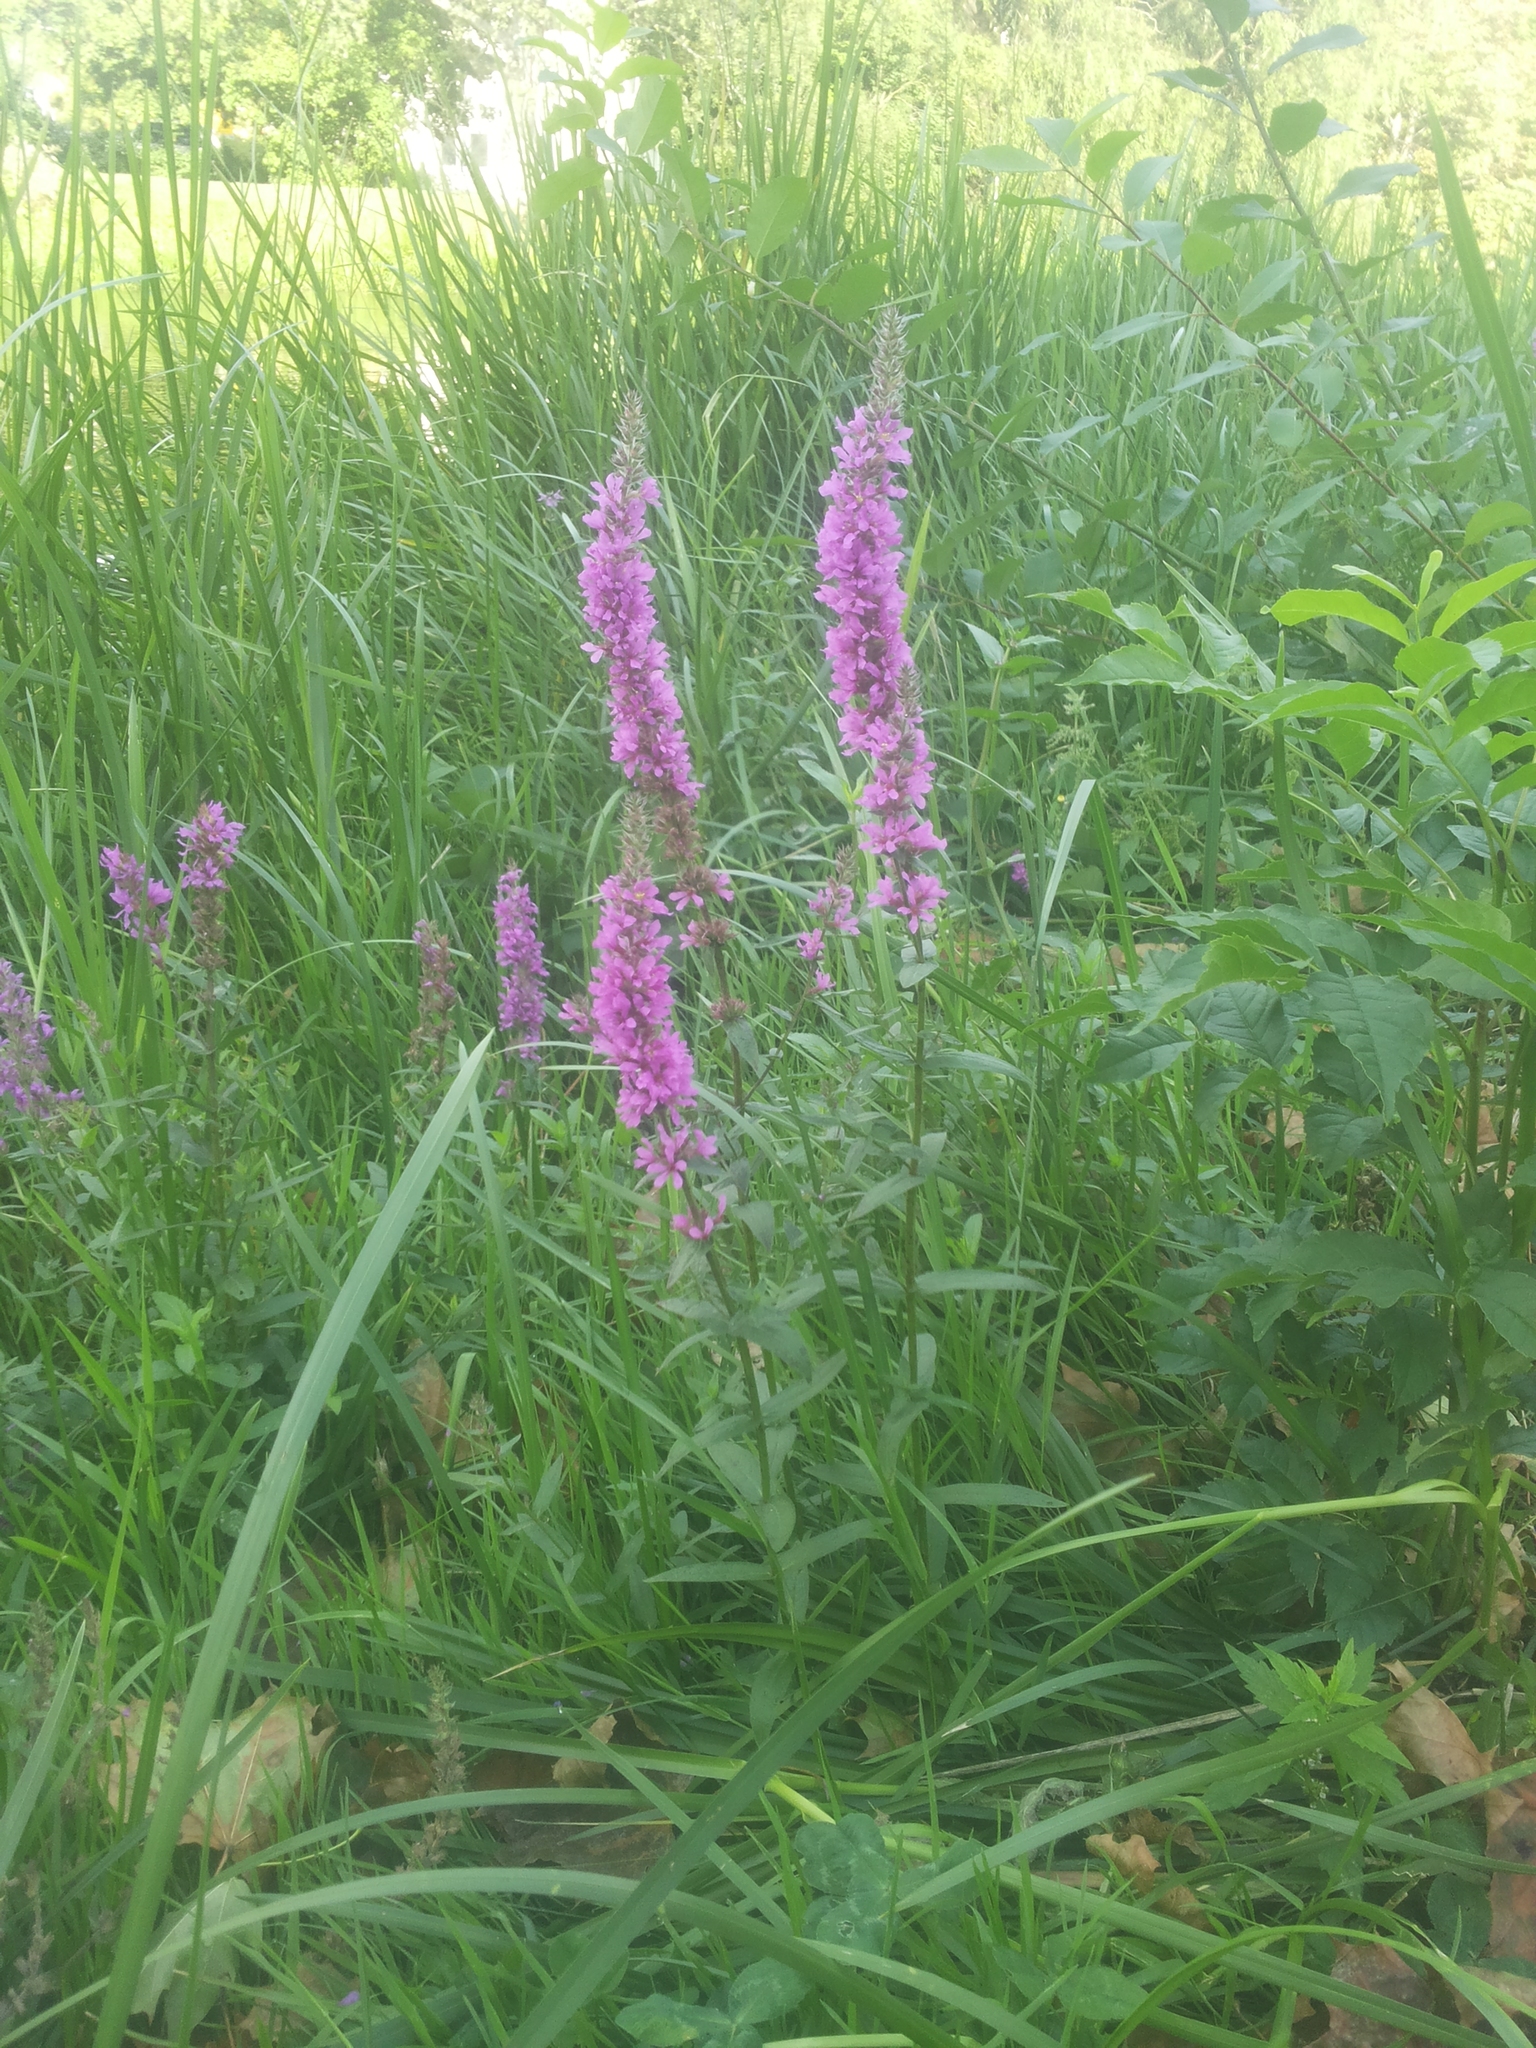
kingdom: Plantae
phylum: Tracheophyta
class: Magnoliopsida
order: Myrtales
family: Lythraceae
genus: Lythrum
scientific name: Lythrum salicaria
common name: Purple loosestrife
